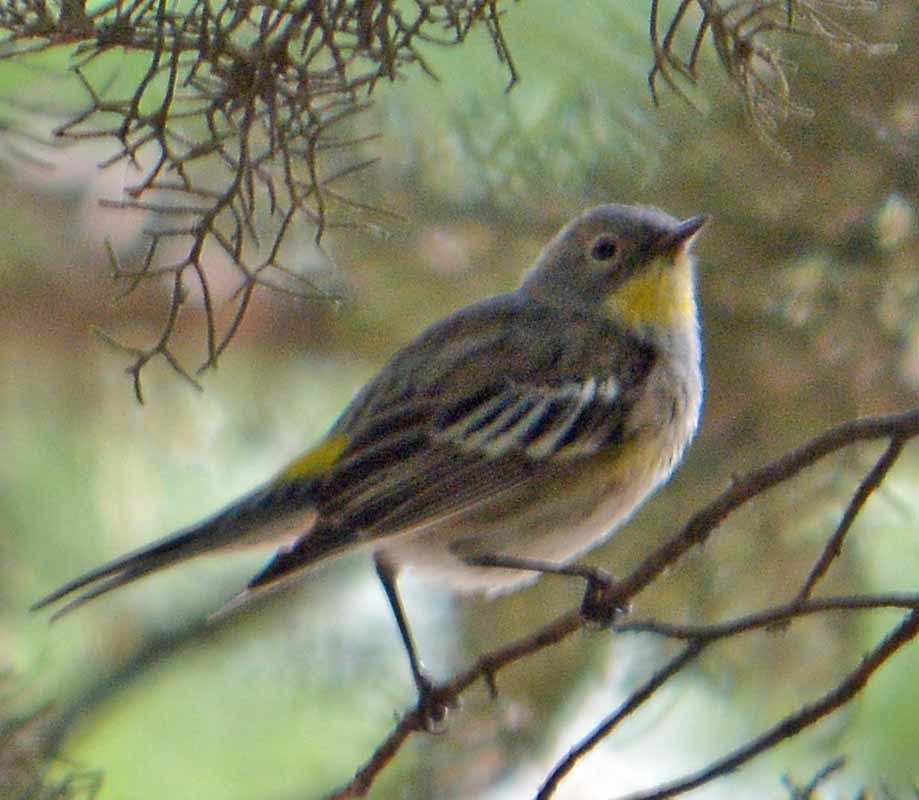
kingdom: Animalia
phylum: Chordata
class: Aves
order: Passeriformes
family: Parulidae
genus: Setophaga
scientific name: Setophaga coronata
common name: Myrtle warbler
